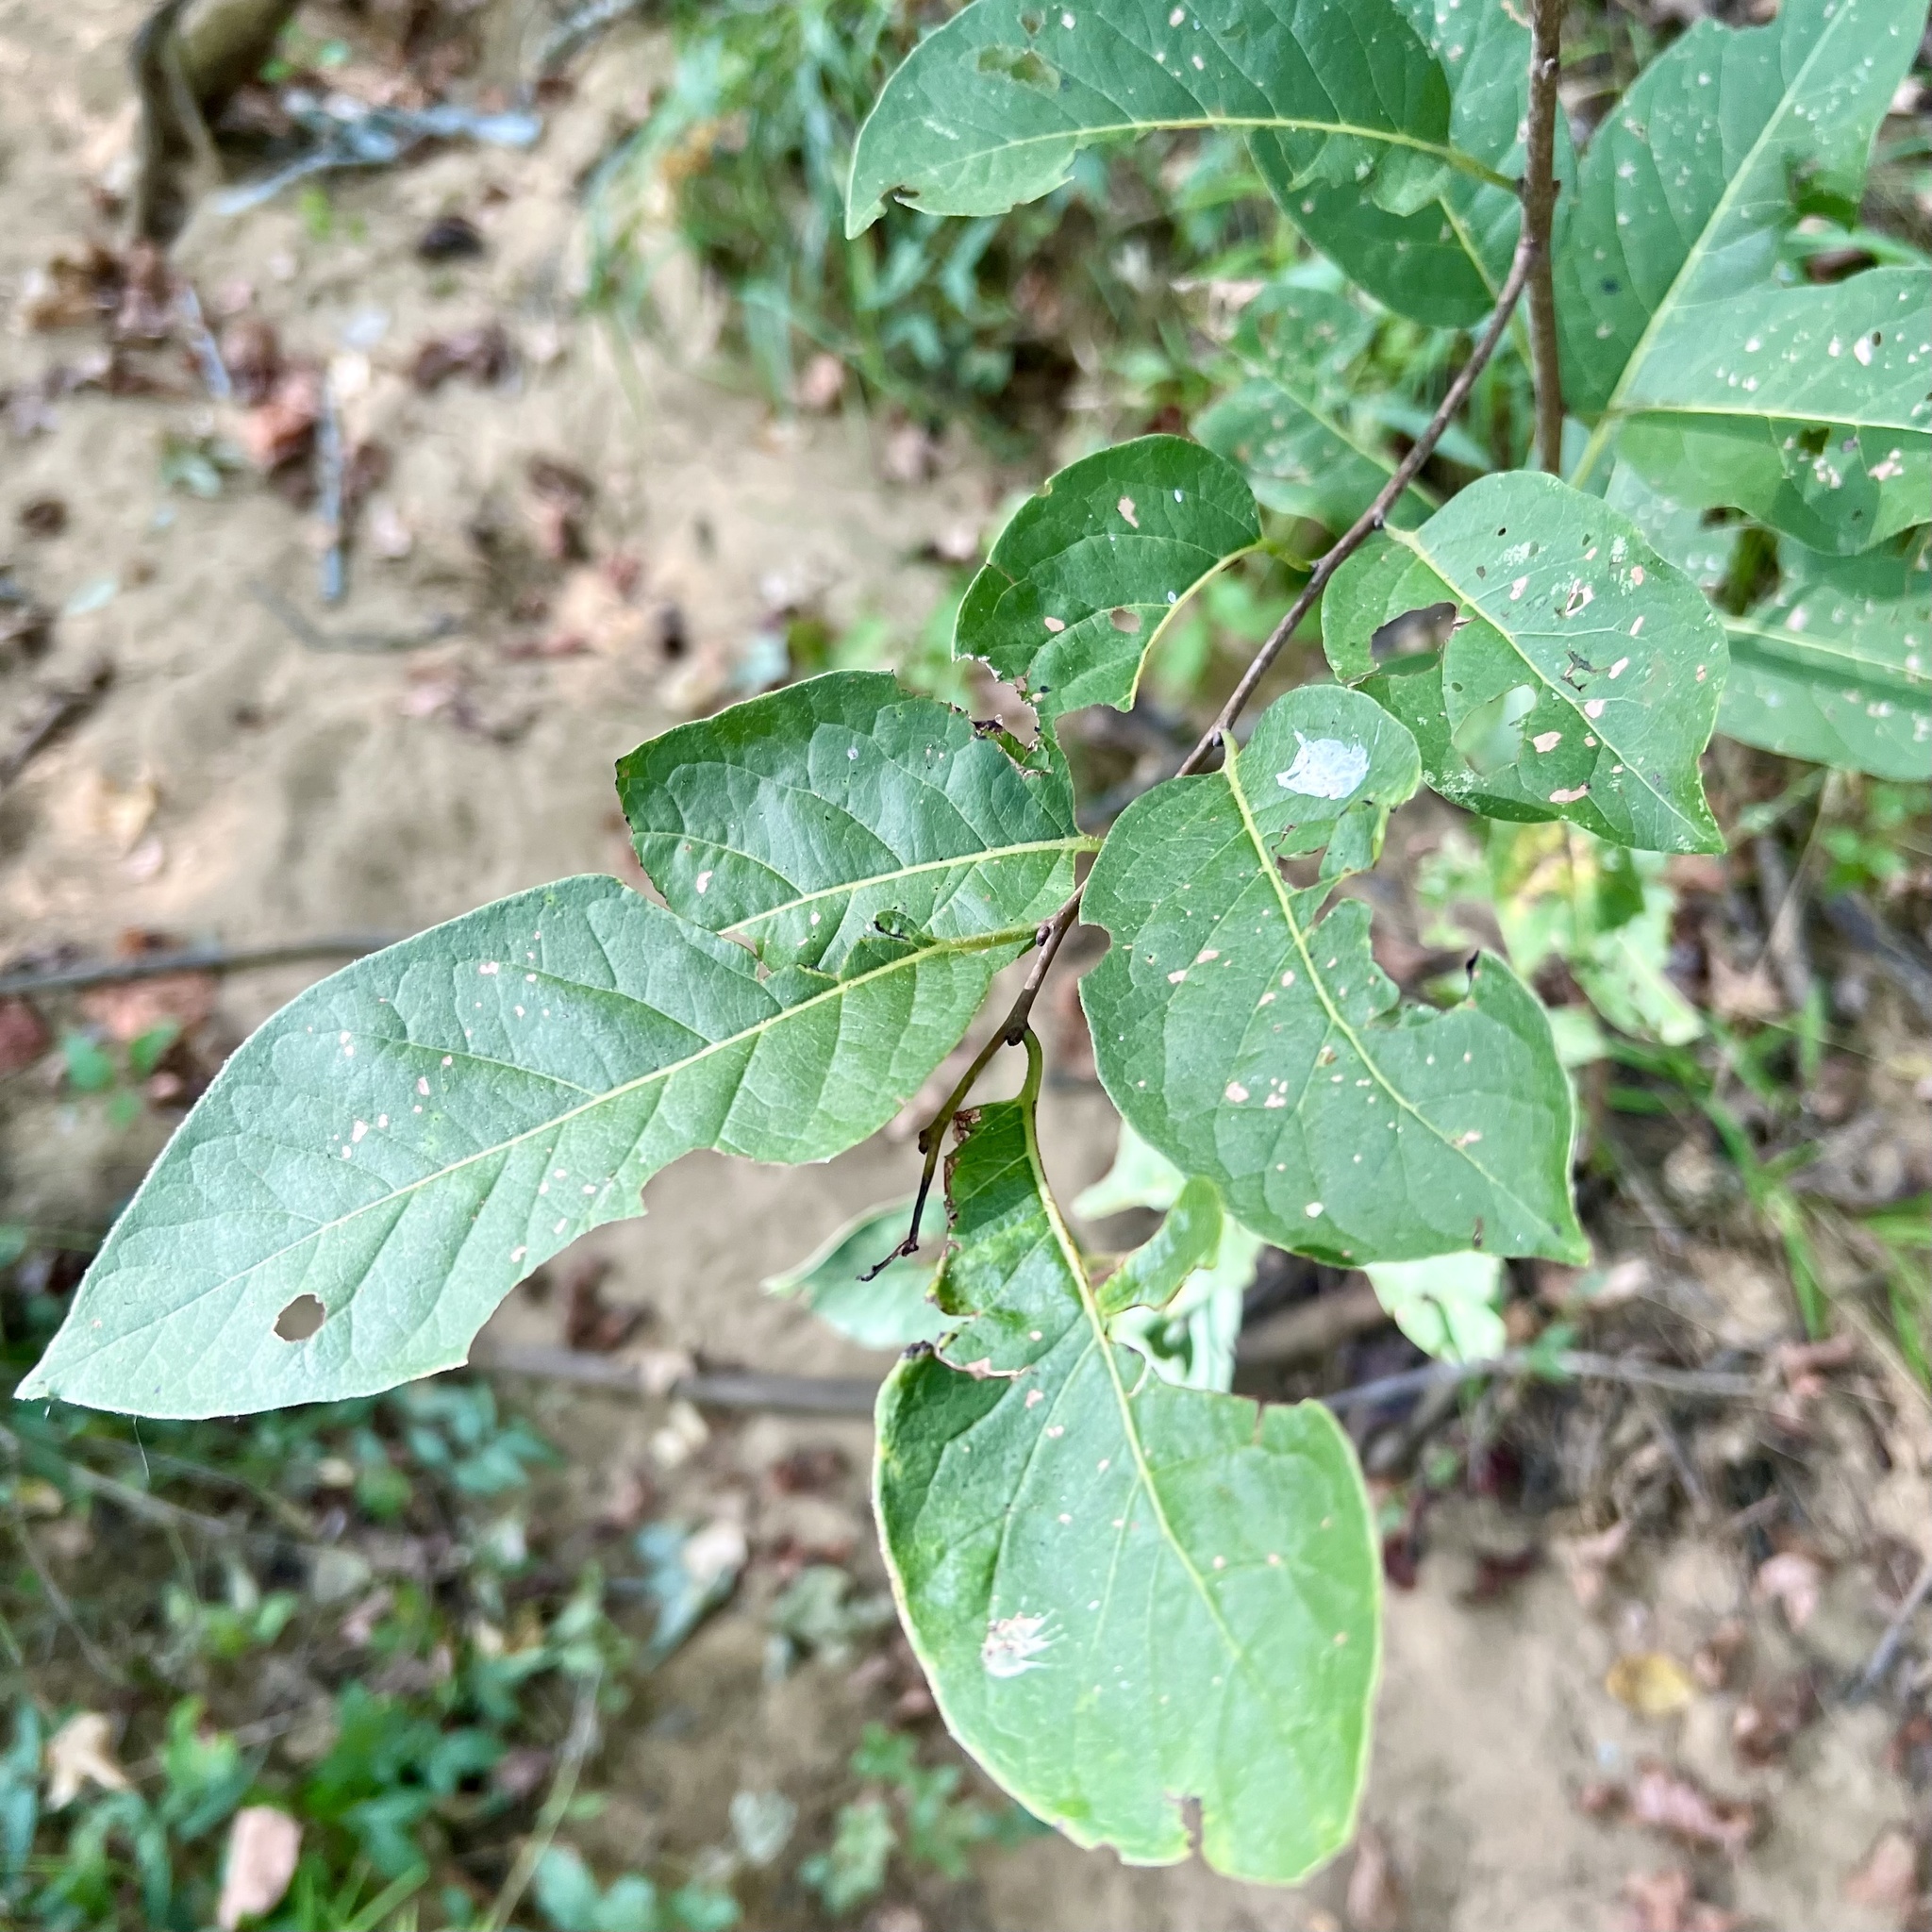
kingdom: Plantae
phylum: Tracheophyta
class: Magnoliopsida
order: Ericales
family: Ebenaceae
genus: Diospyros
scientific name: Diospyros virginiana
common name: Persimmon
